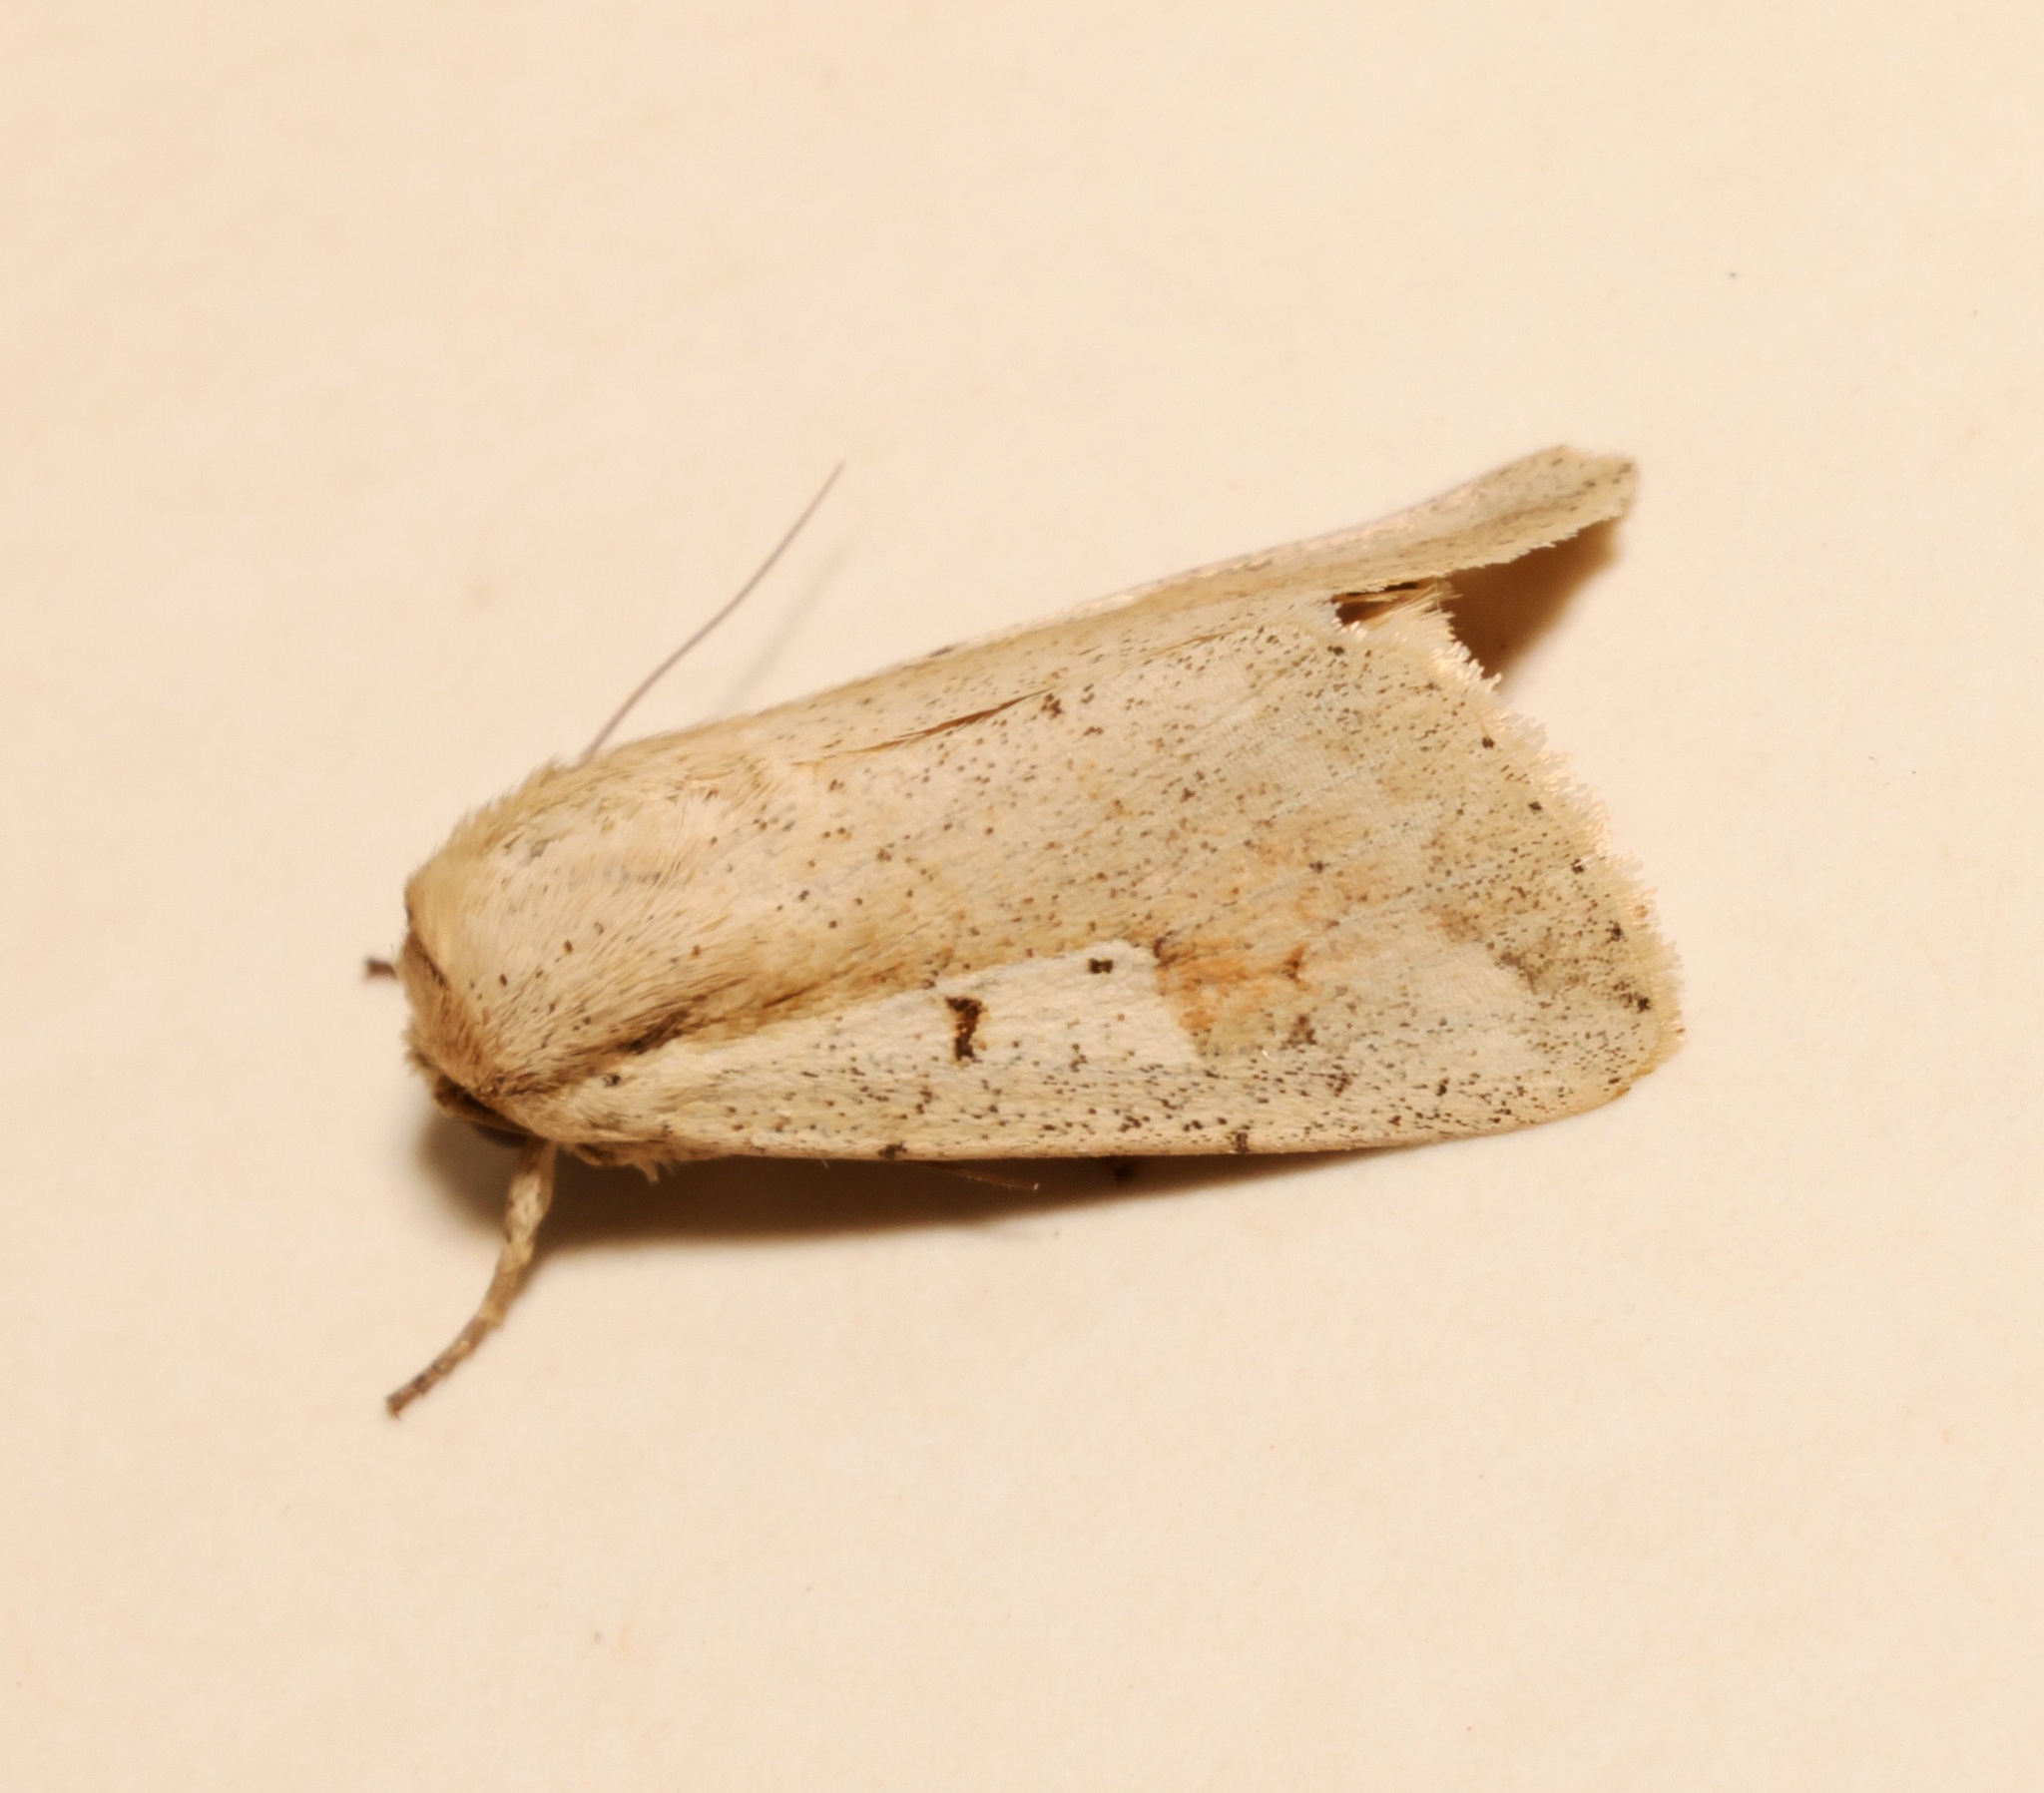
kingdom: Animalia
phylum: Arthropoda
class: Insecta
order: Lepidoptera
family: Noctuidae
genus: Leucania
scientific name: Leucania yu
